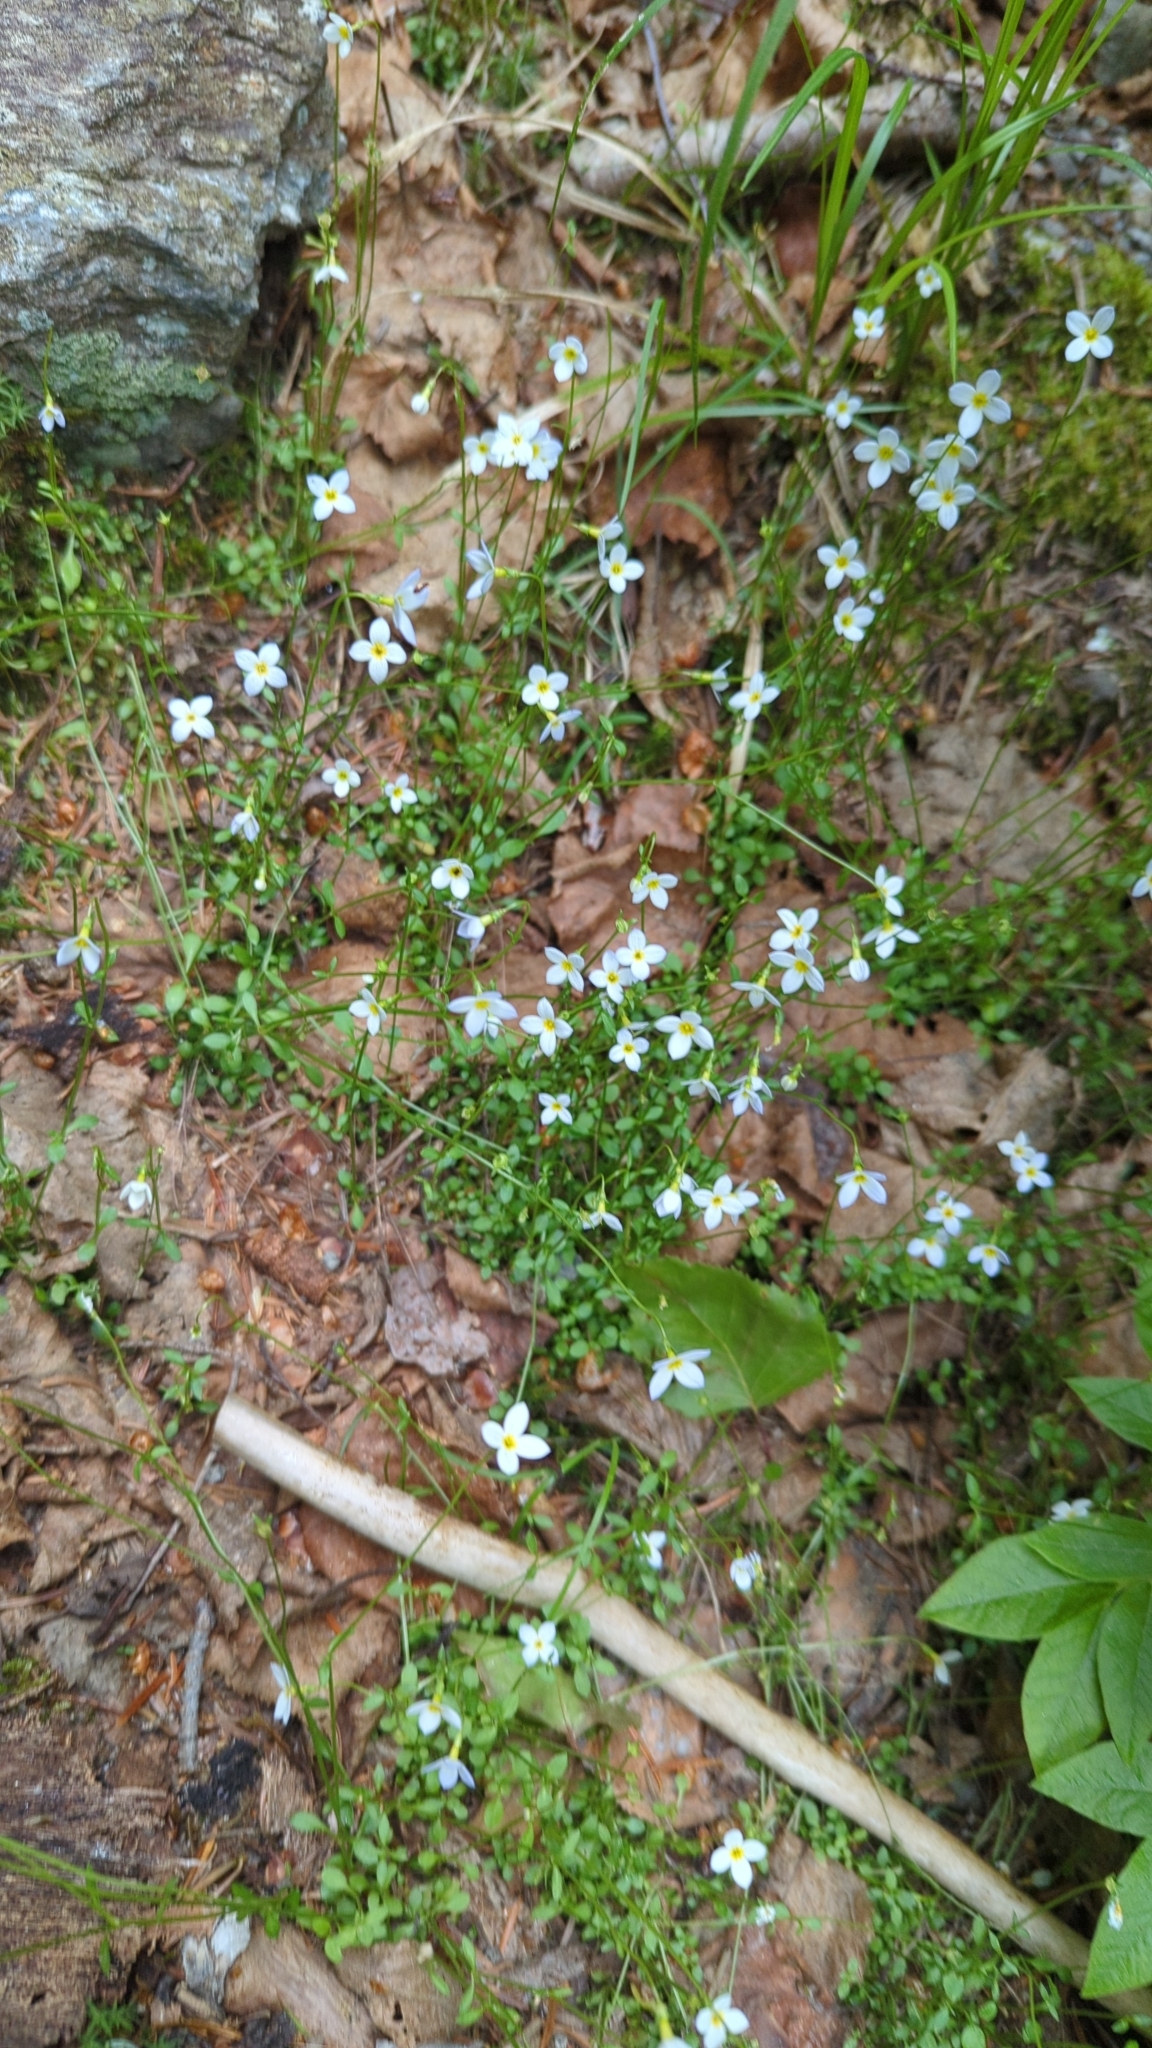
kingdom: Plantae
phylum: Tracheophyta
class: Magnoliopsida
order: Gentianales
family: Rubiaceae
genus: Houstonia
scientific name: Houstonia caerulea
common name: Bluets
